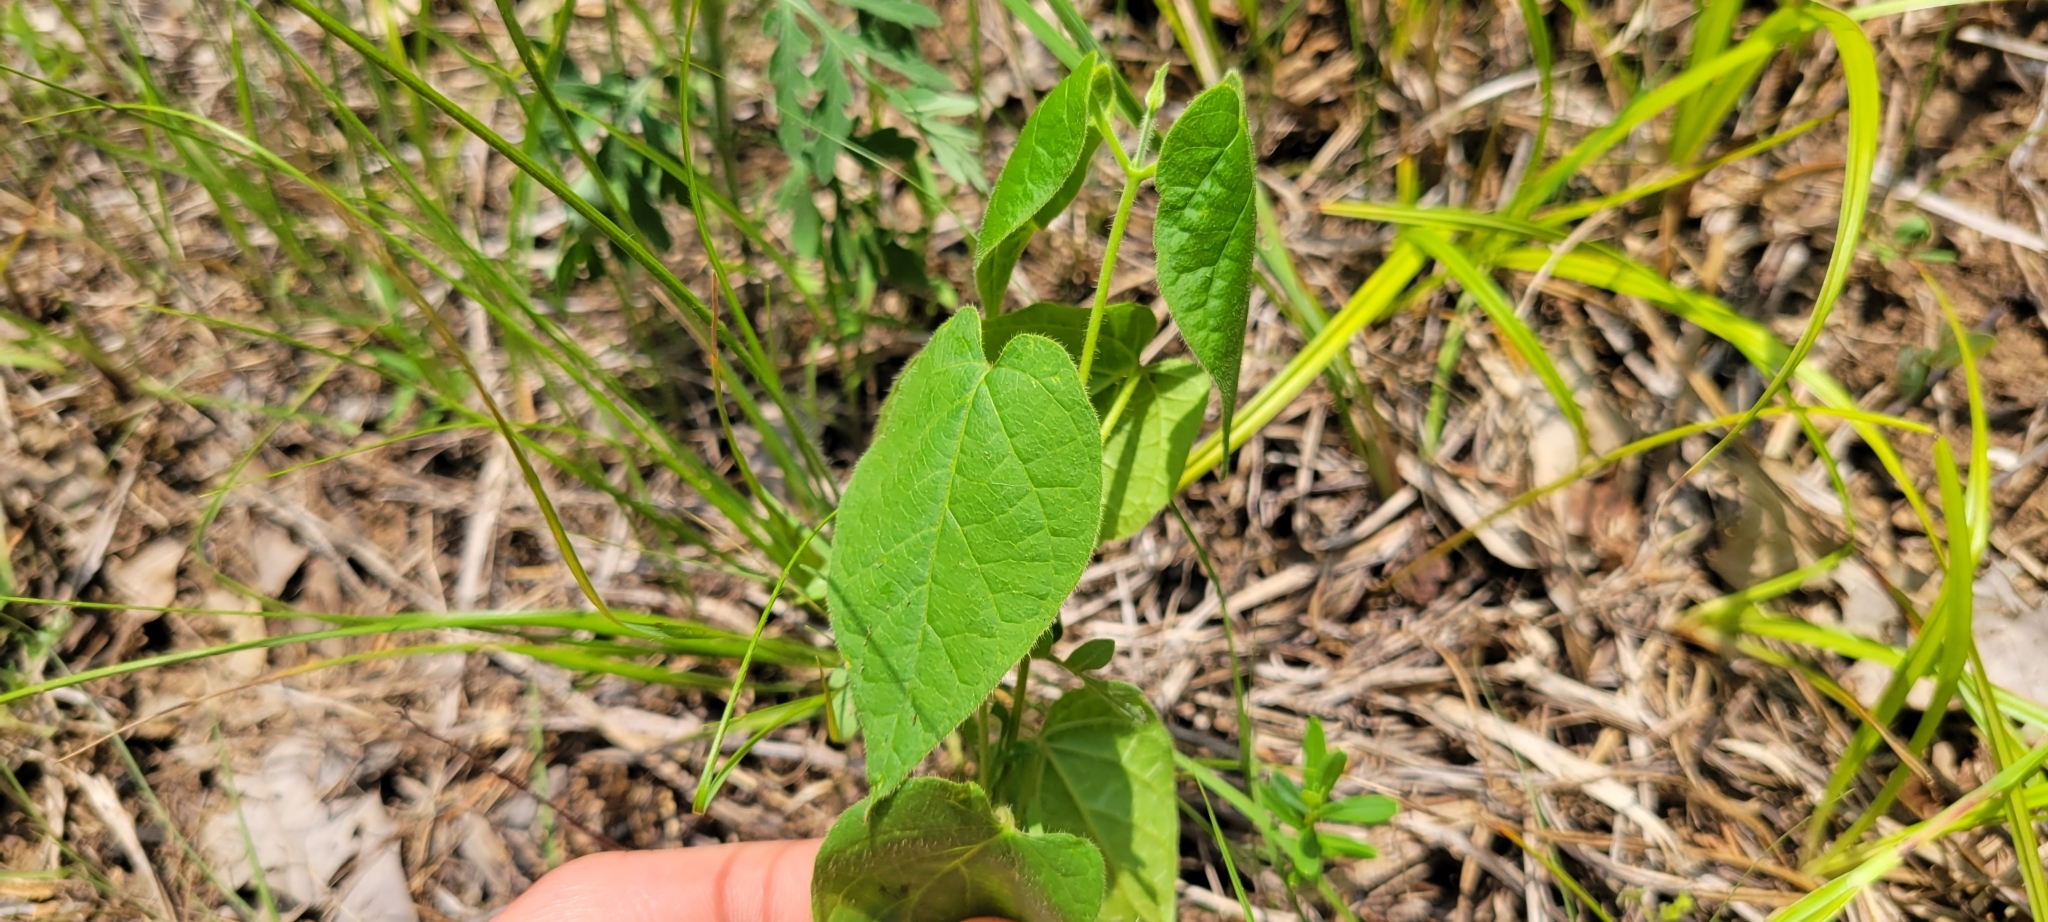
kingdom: Plantae
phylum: Tracheophyta
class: Magnoliopsida
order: Gentianales
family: Apocynaceae
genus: Matelea
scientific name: Matelea obliqua
